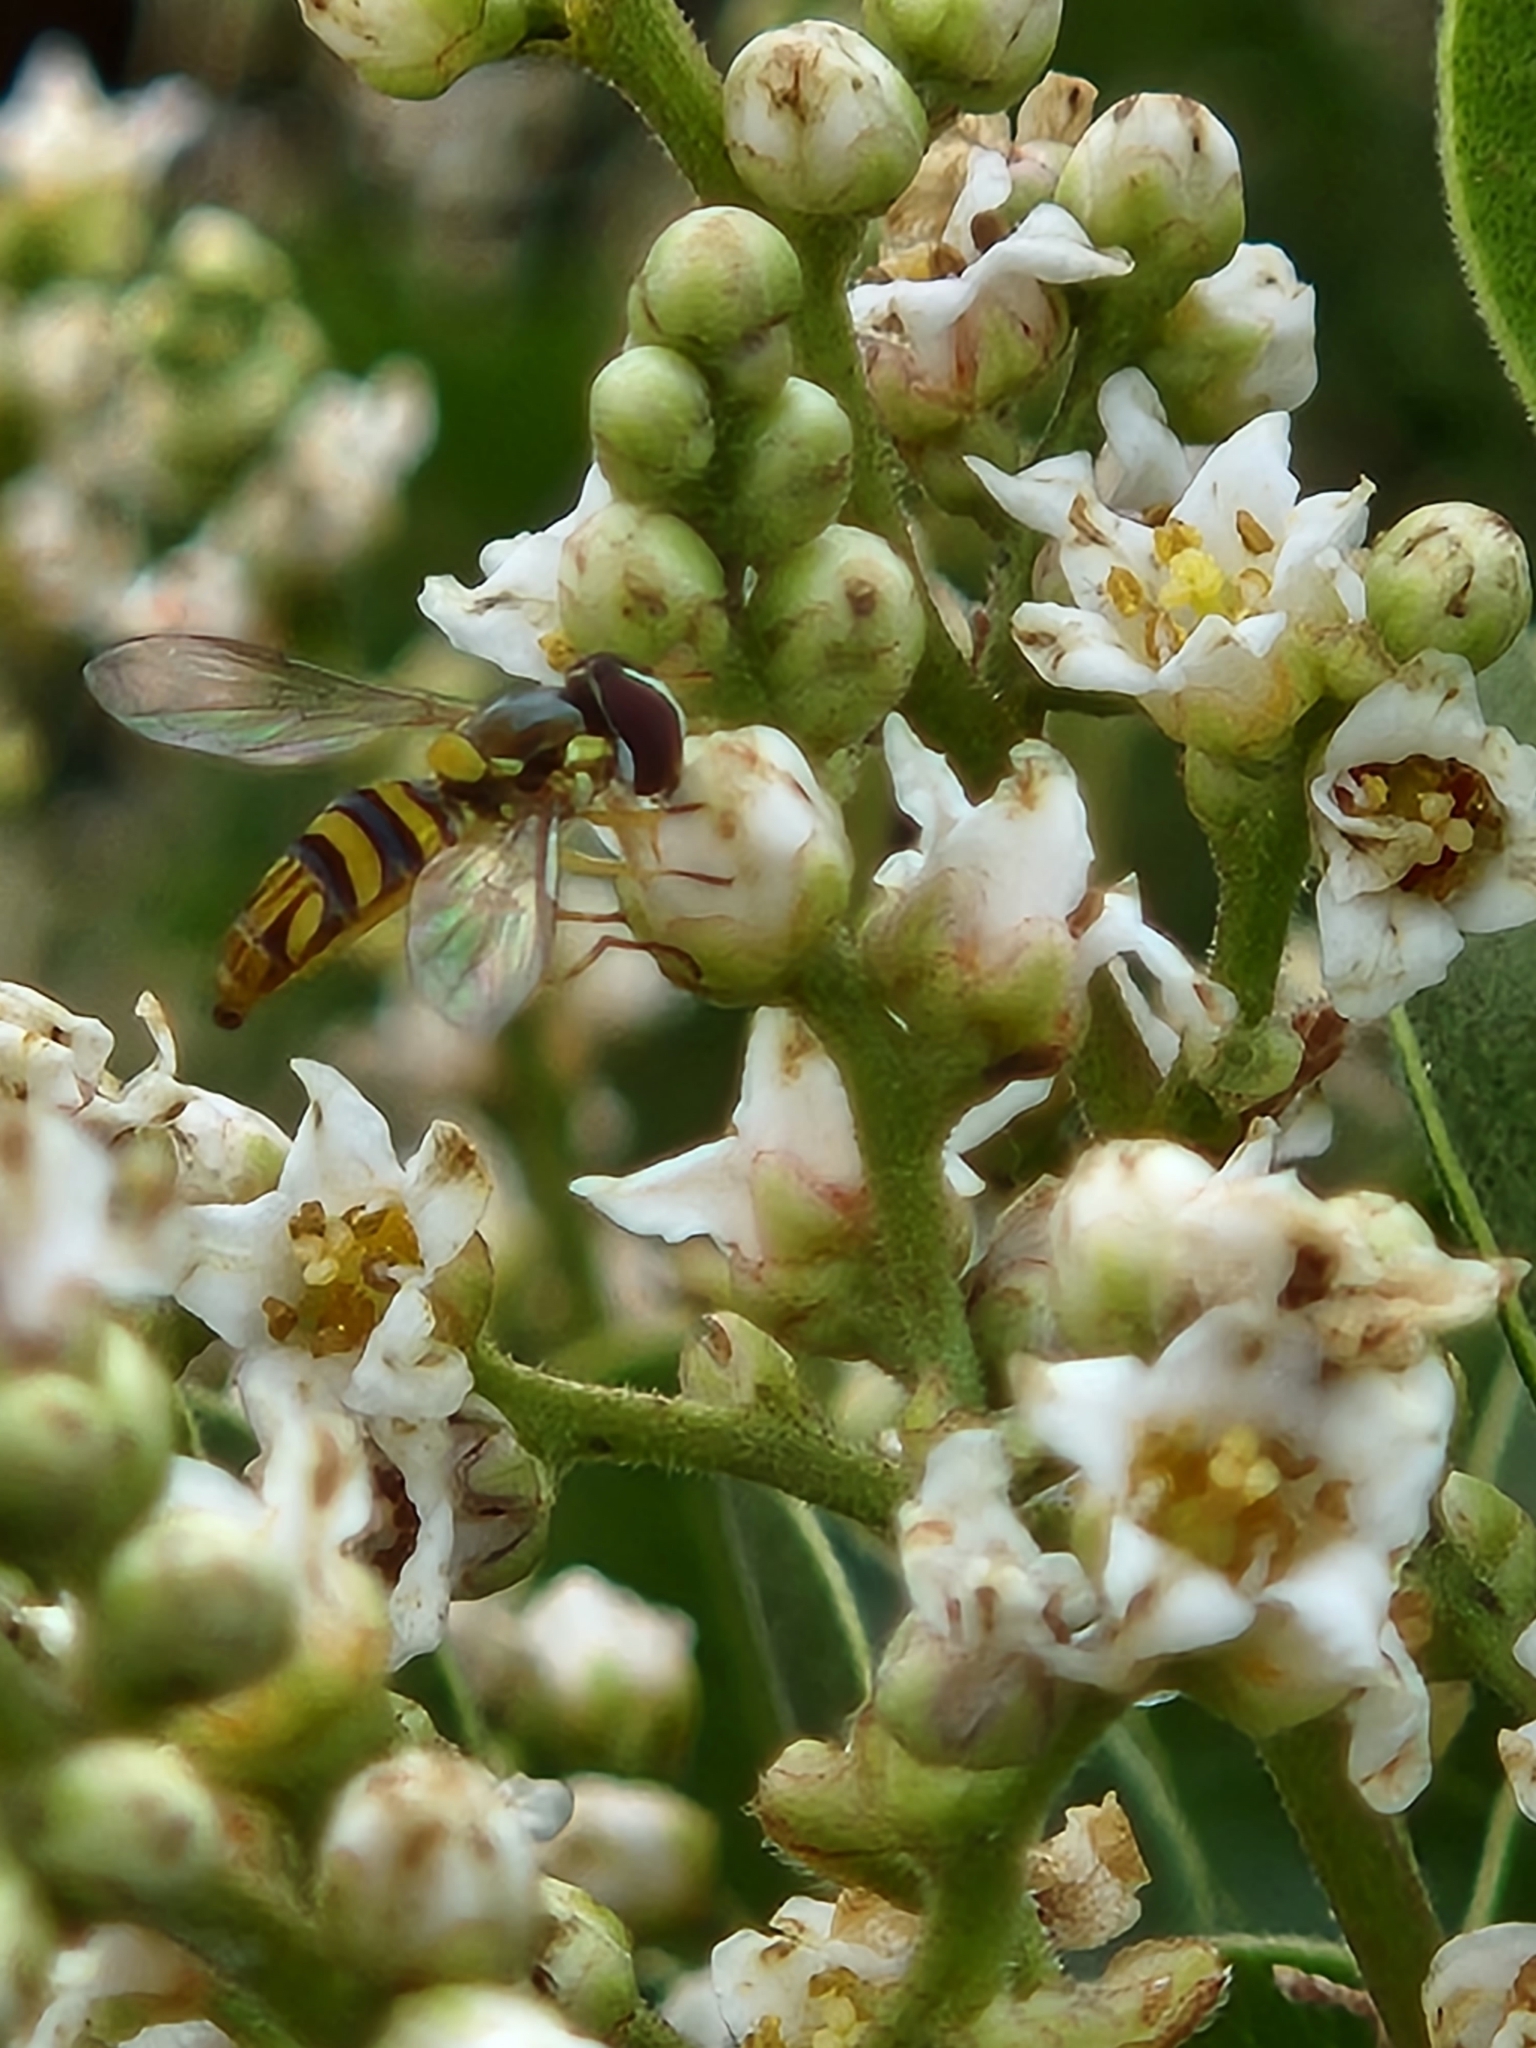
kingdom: Animalia
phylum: Arthropoda
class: Insecta
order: Diptera
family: Syrphidae
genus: Allograpta
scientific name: Allograpta obliqua
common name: Common oblique syrphid
